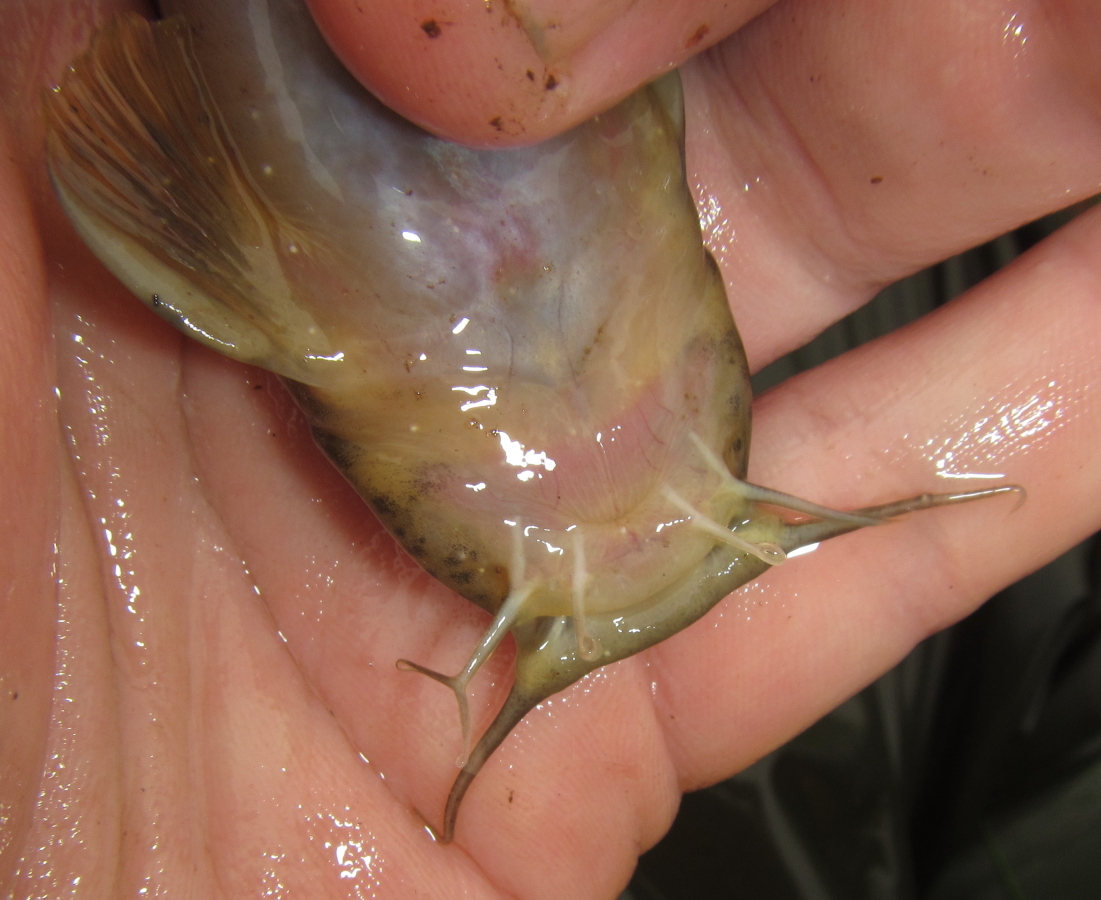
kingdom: Animalia
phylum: Chordata
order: Siluriformes
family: Amphiliidae
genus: Amphilius
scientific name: Amphilius uranoscopus
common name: Stargazer mountain catfish
